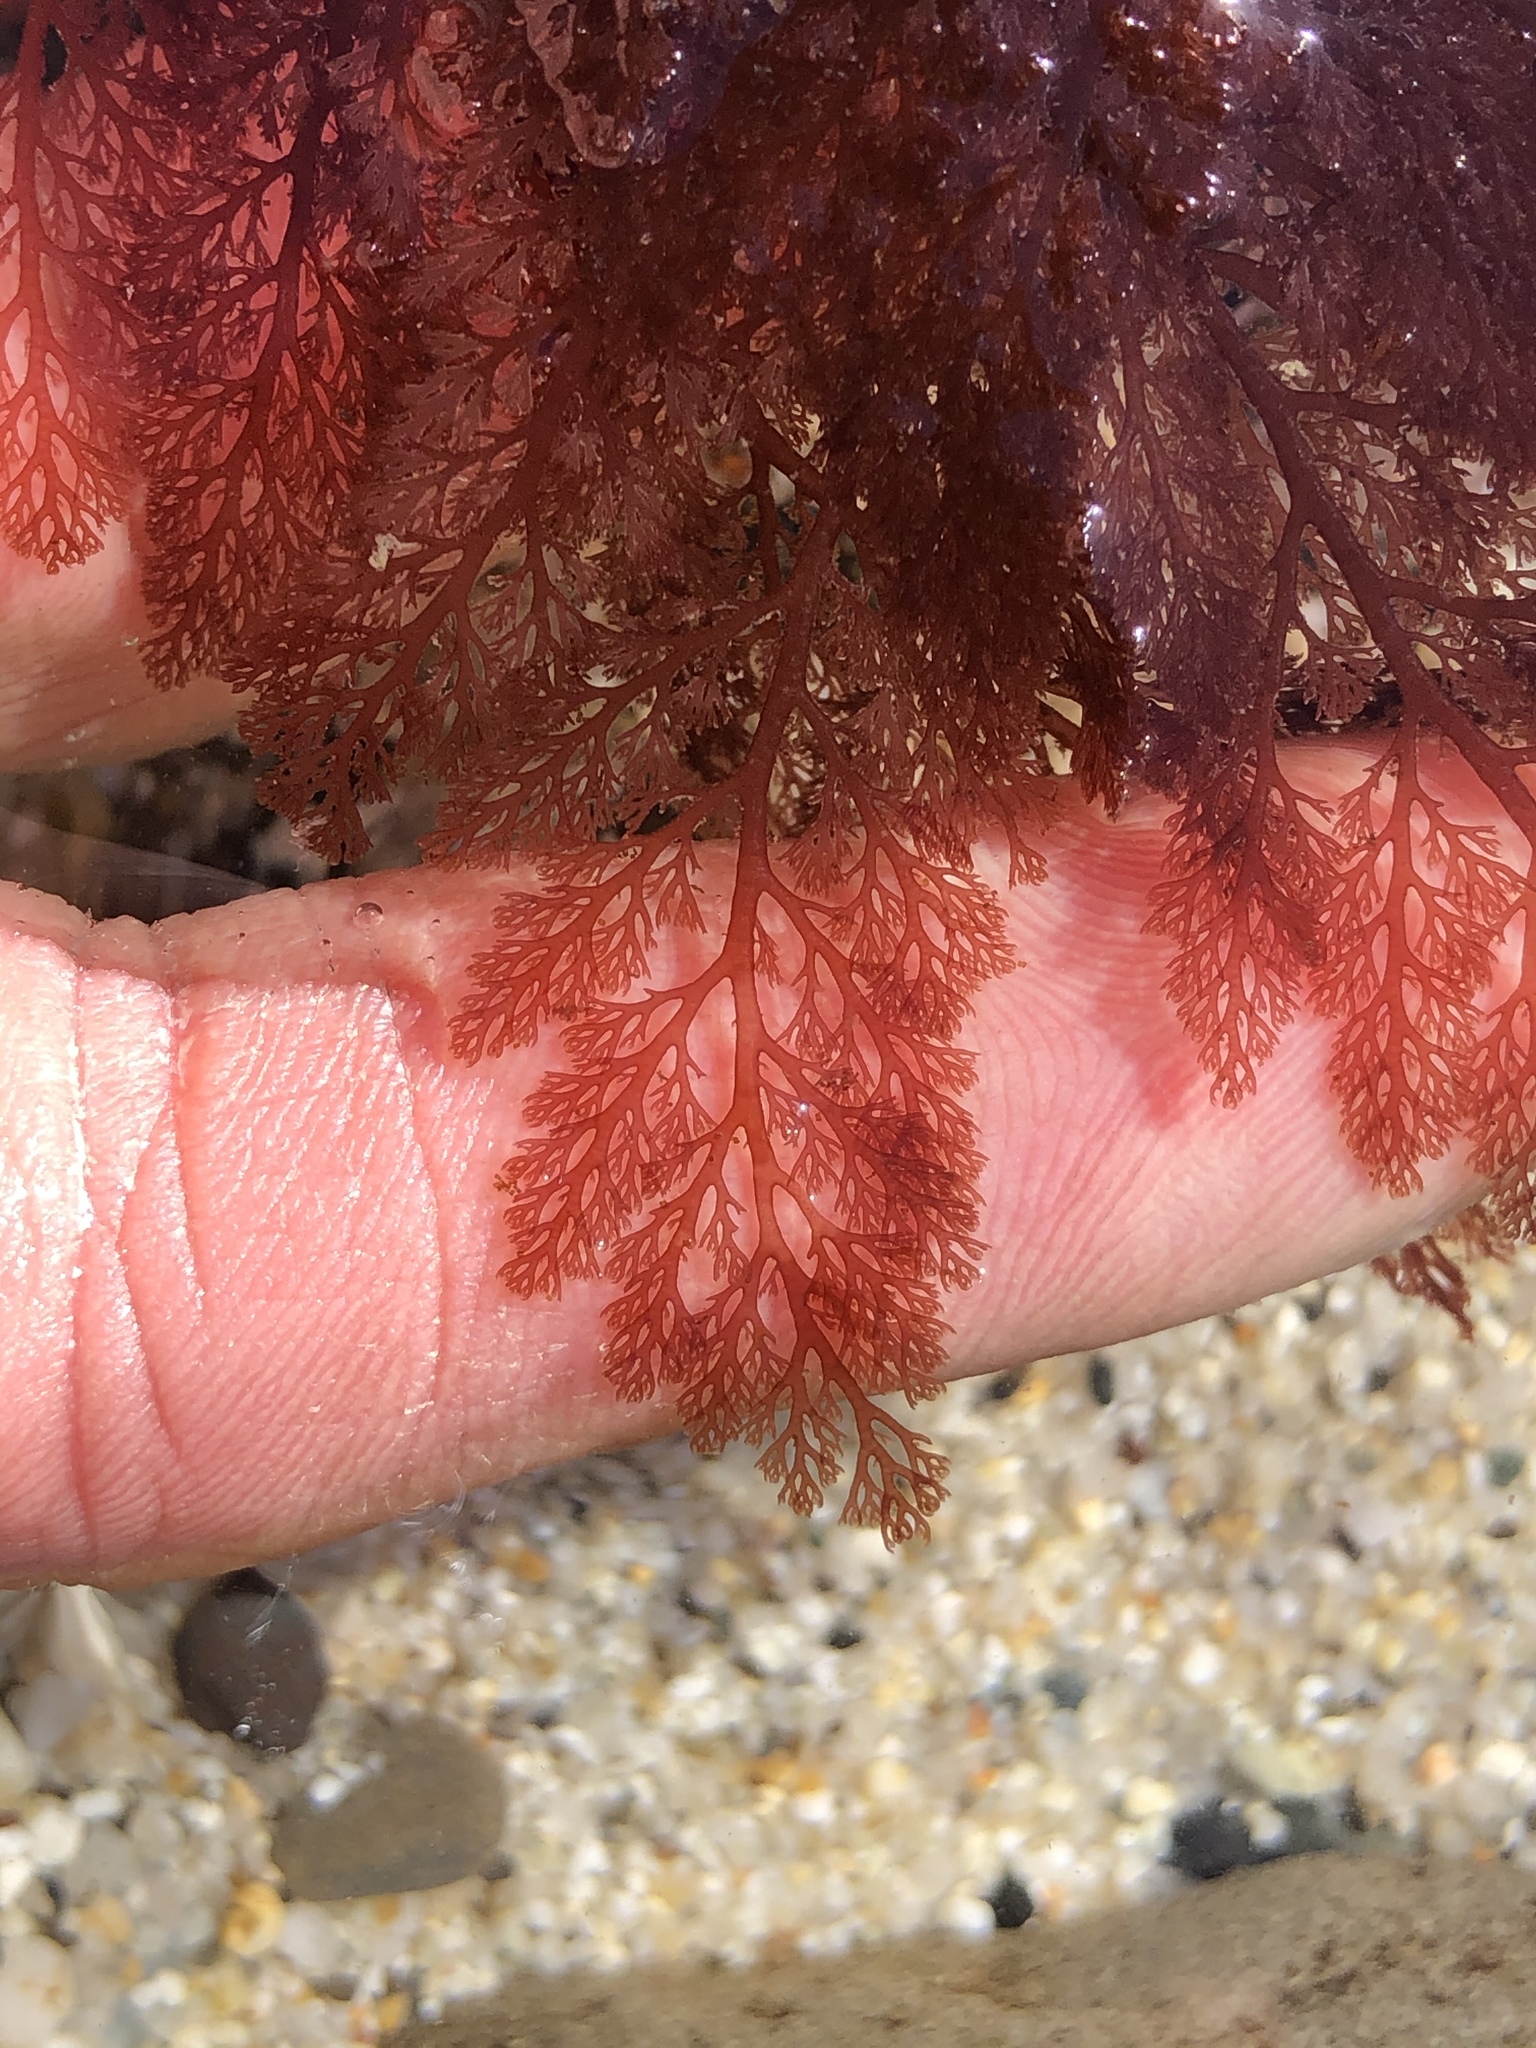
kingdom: Plantae
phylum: Rhodophyta
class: Florideophyceae
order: Ceramiales
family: Ceramiaceae
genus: Microcladia
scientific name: Microcladia coulteri
